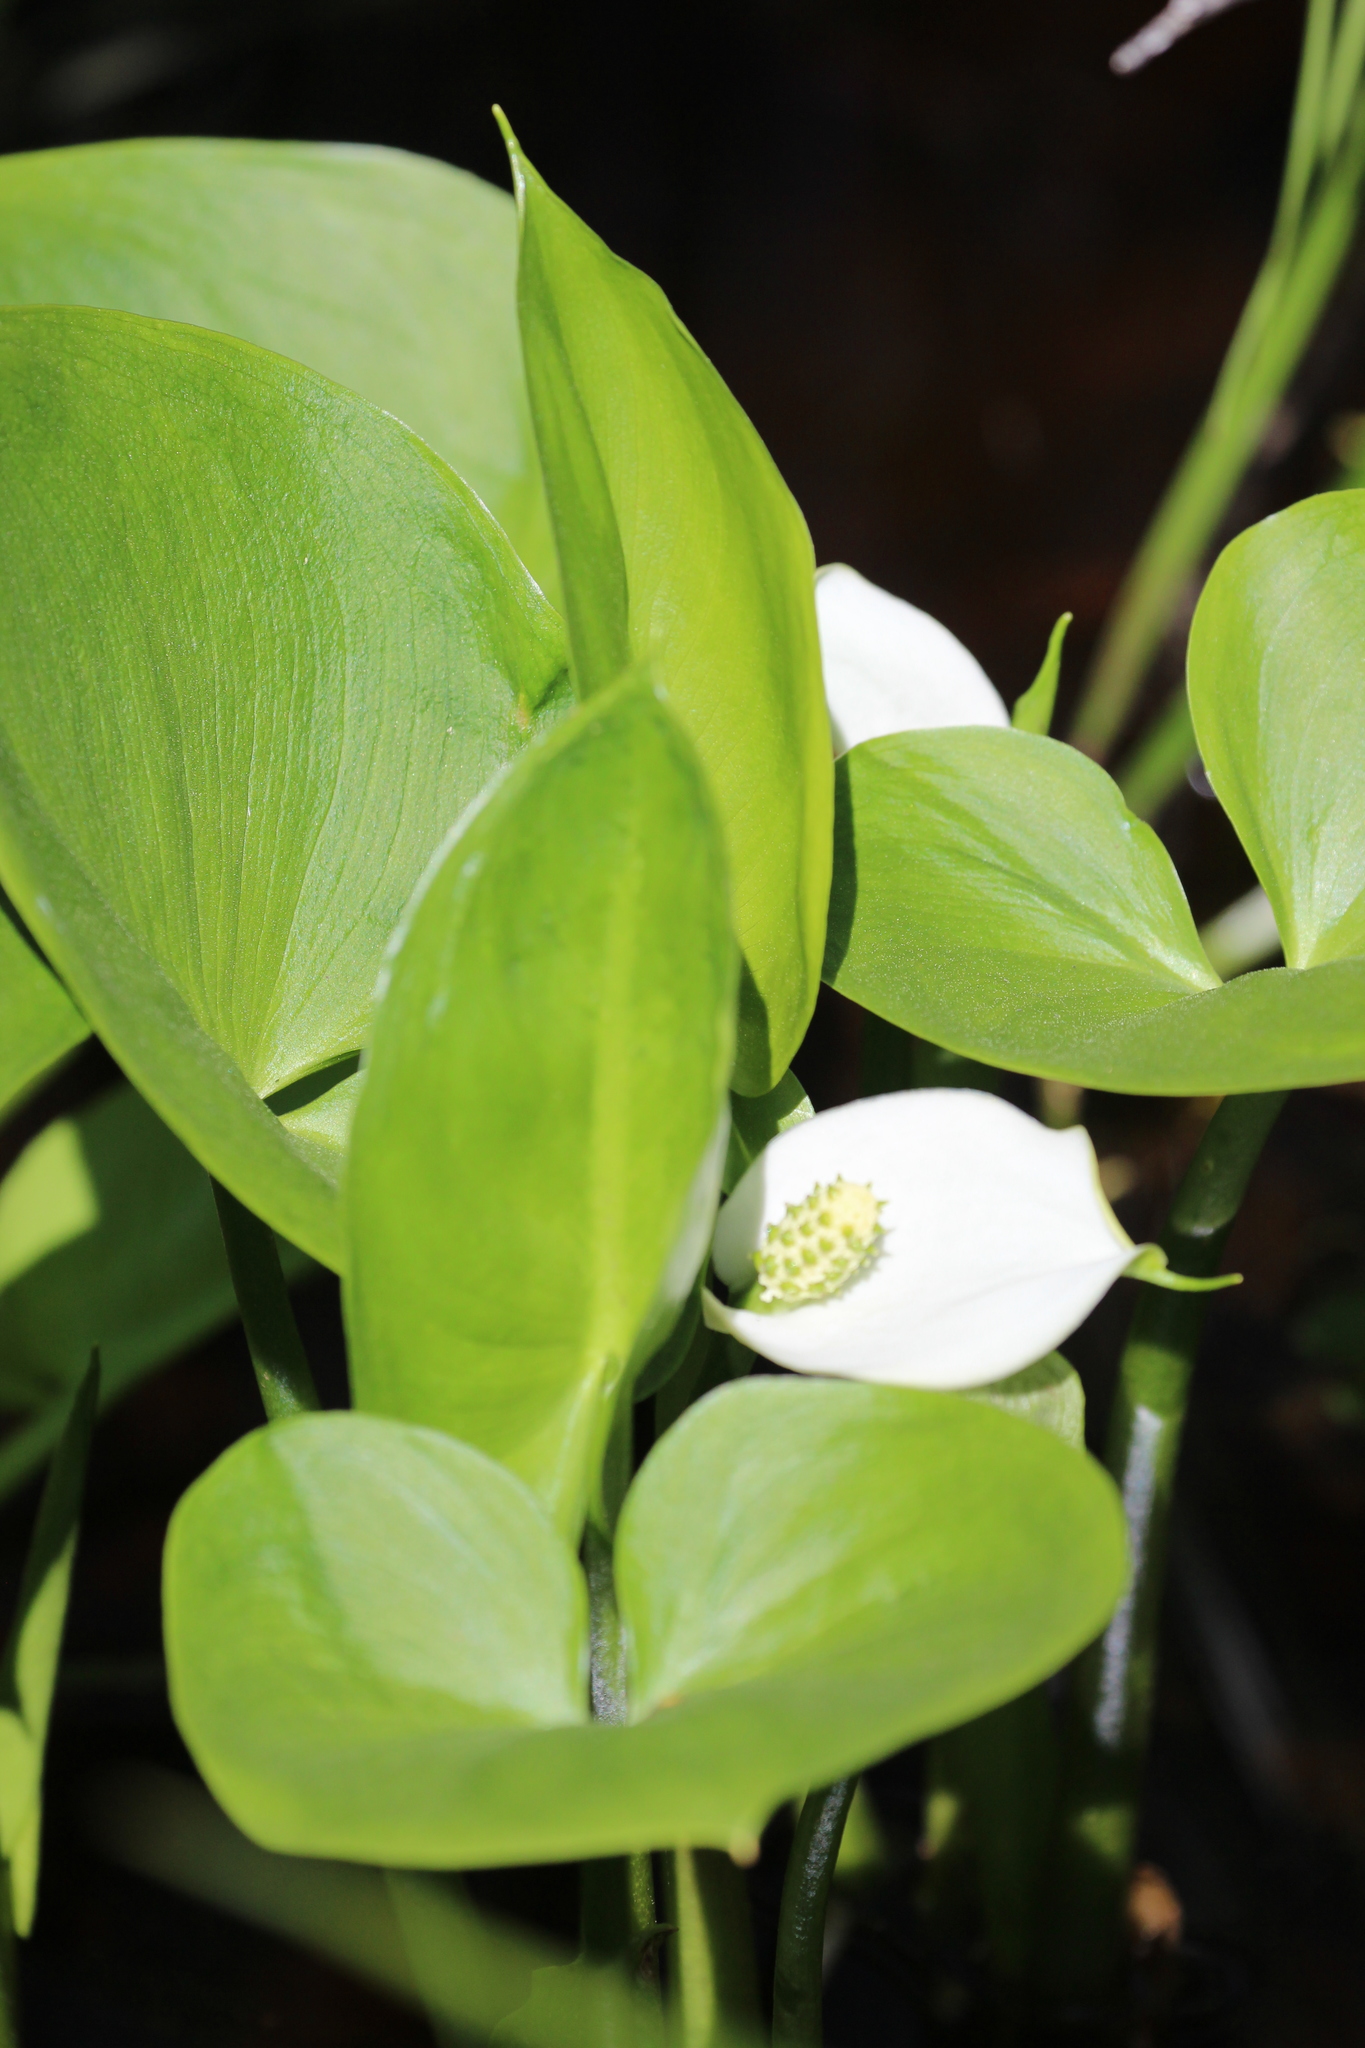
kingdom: Plantae
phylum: Tracheophyta
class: Liliopsida
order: Alismatales
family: Araceae
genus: Calla
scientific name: Calla palustris
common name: Bog arum
